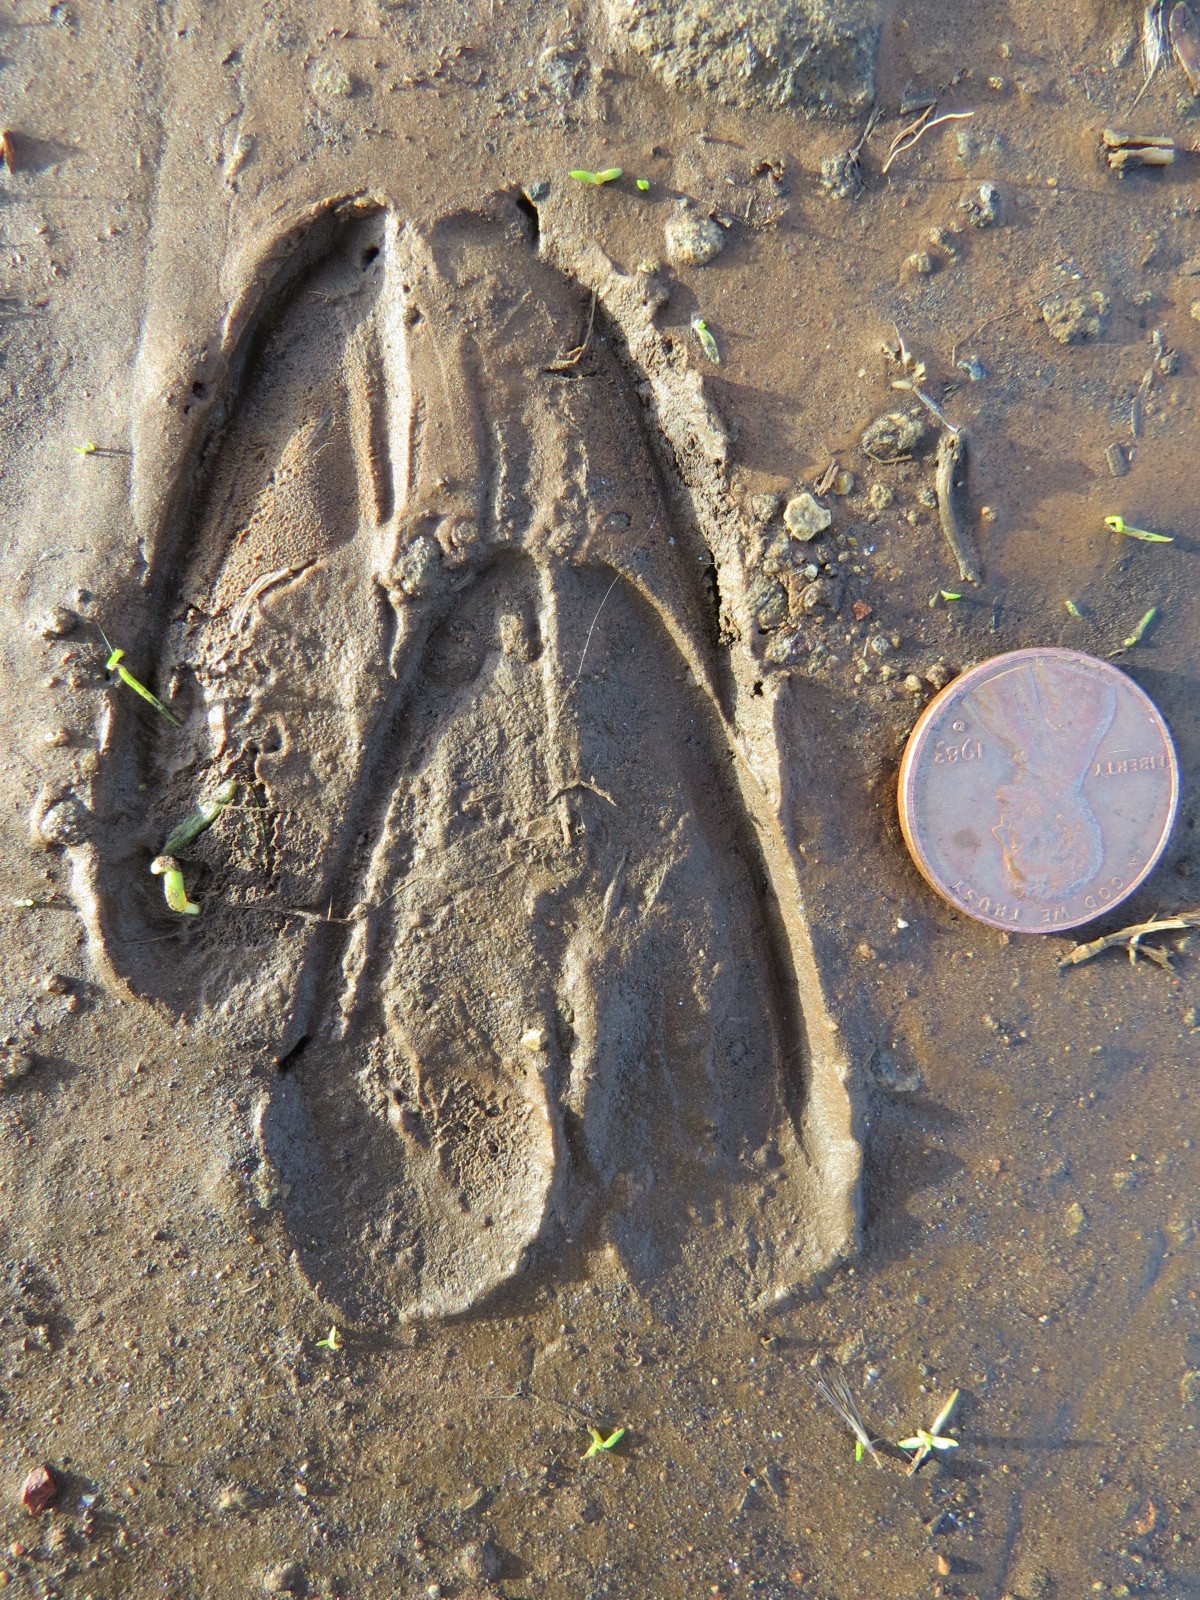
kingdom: Animalia
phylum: Chordata
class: Mammalia
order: Artiodactyla
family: Cervidae
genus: Odocoileus
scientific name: Odocoileus hemionus
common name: Mule deer
